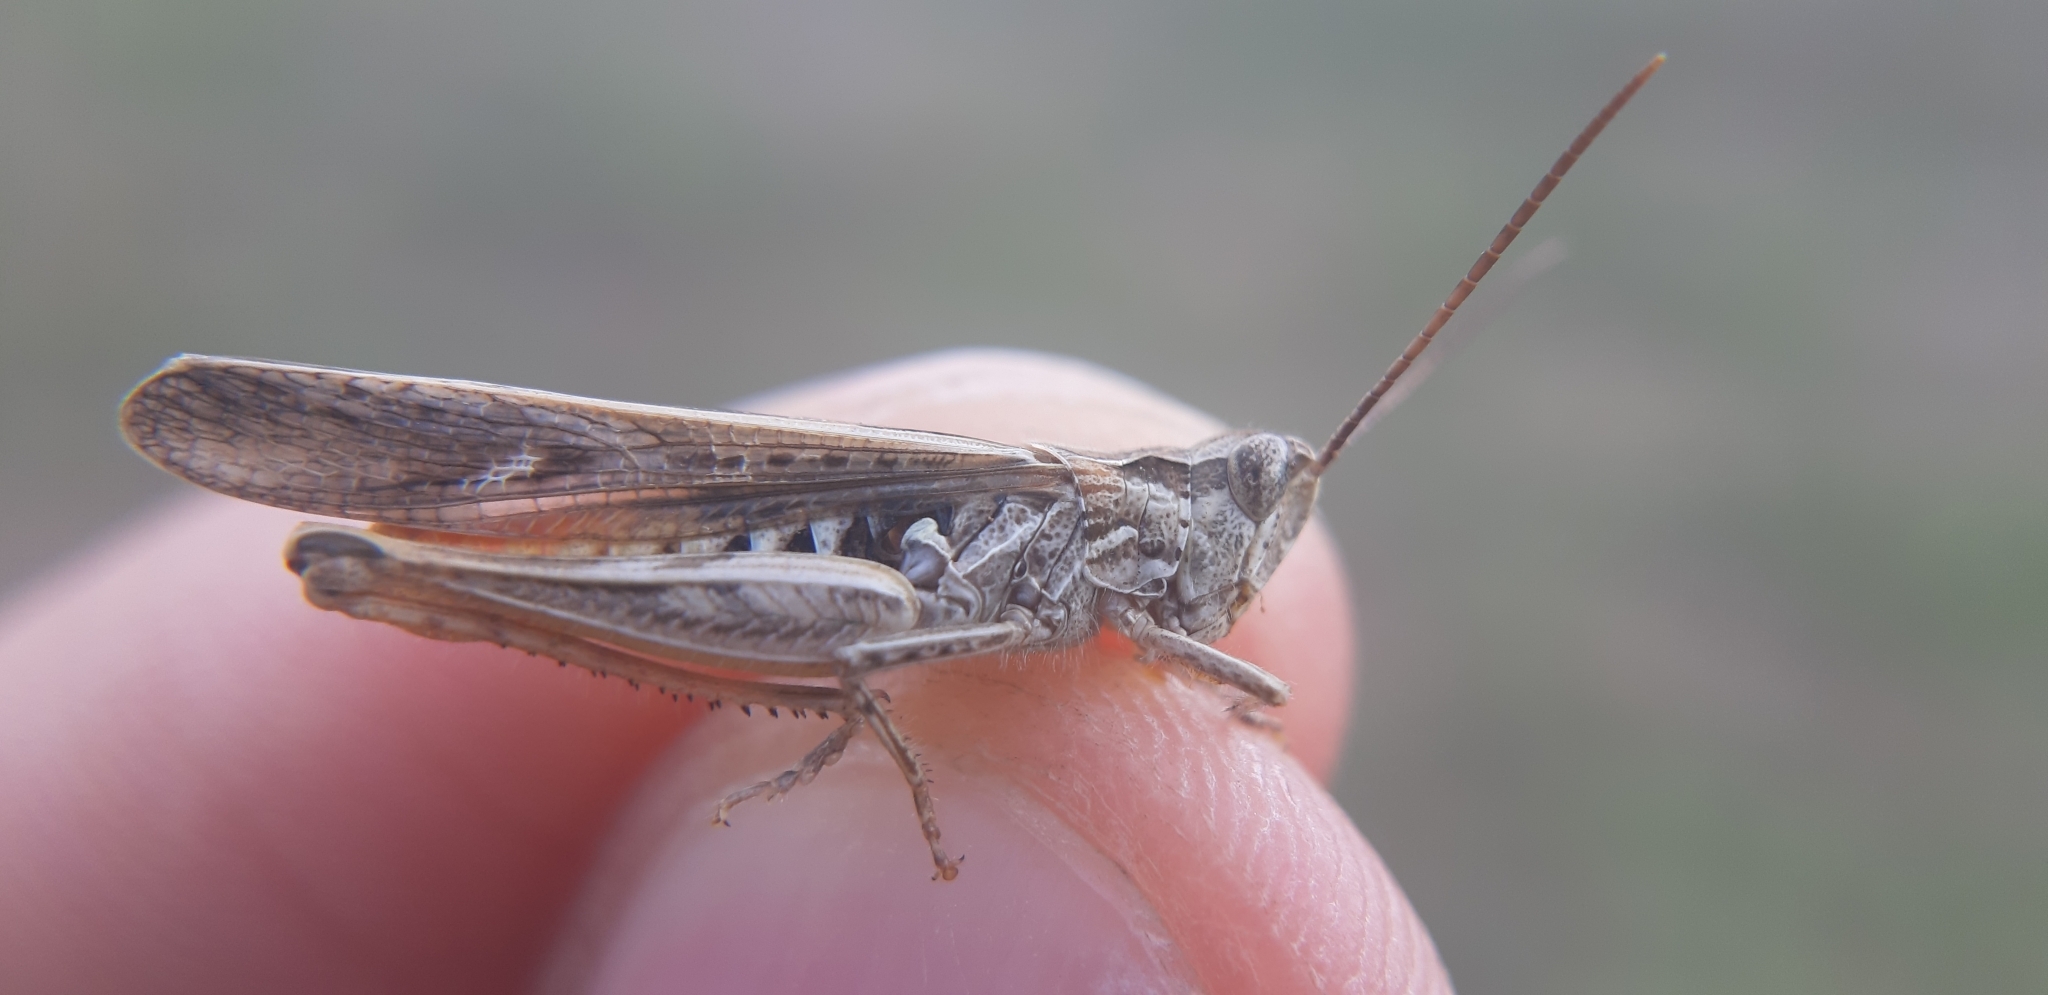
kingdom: Animalia
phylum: Arthropoda
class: Insecta
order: Orthoptera
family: Acrididae
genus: Chorthippus
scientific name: Chorthippus brunneus
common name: Field grasshopper
